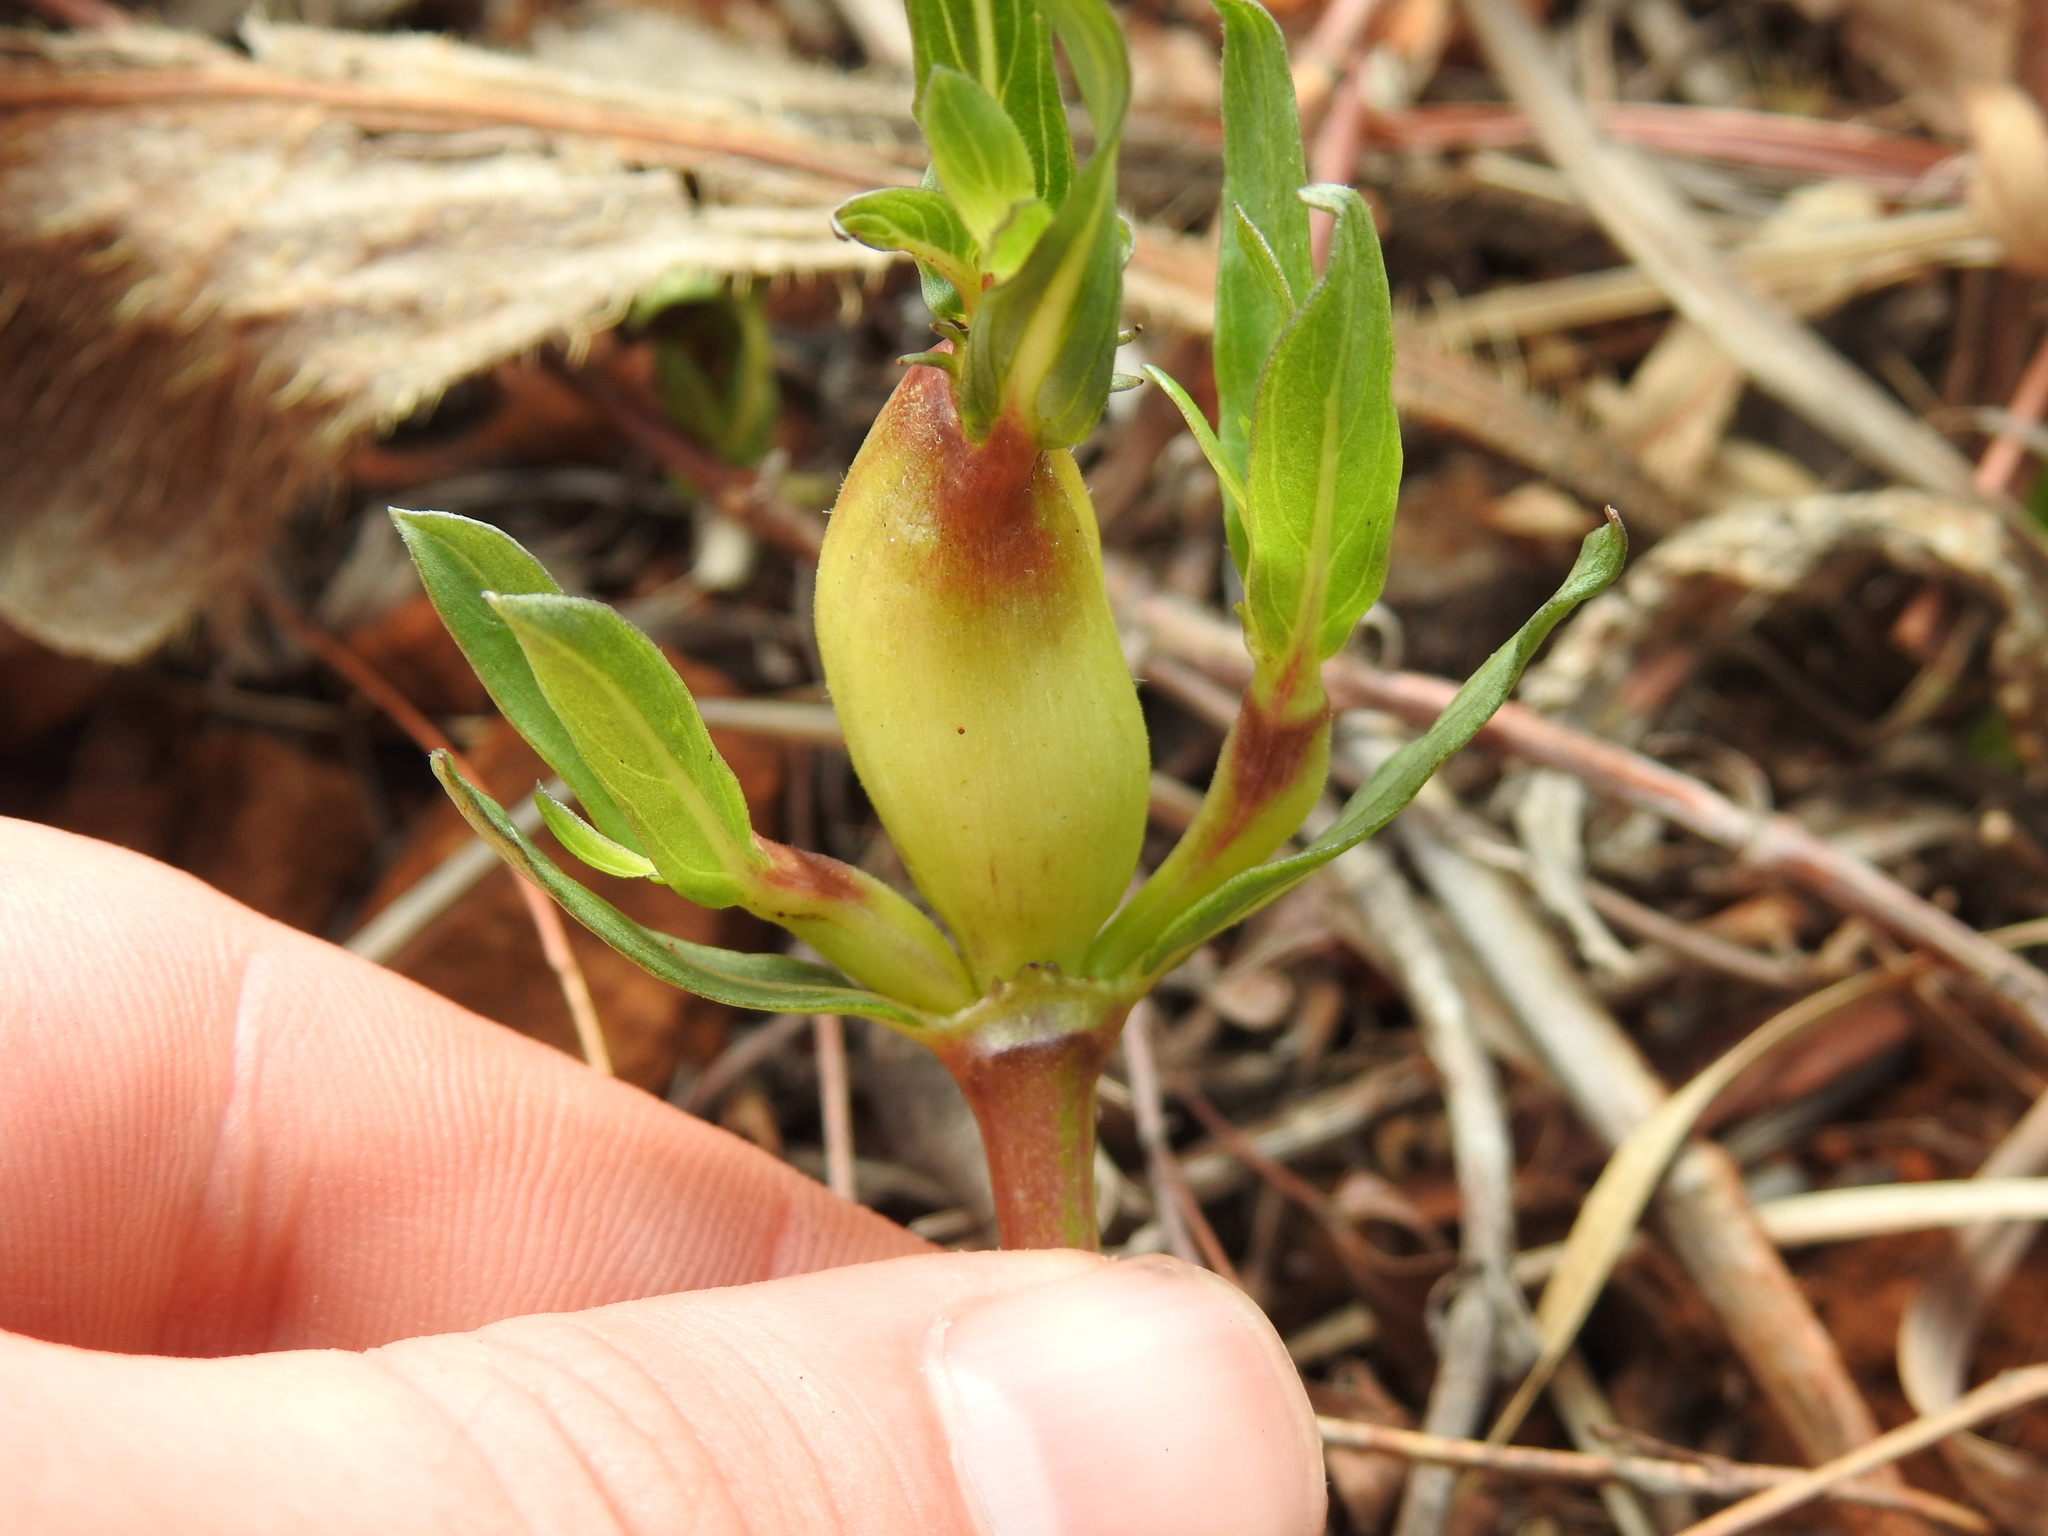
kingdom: Plantae
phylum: Tracheophyta
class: Magnoliopsida
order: Gentianales
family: Rubiaceae
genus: Pentanisia
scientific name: Pentanisia angustifolia
